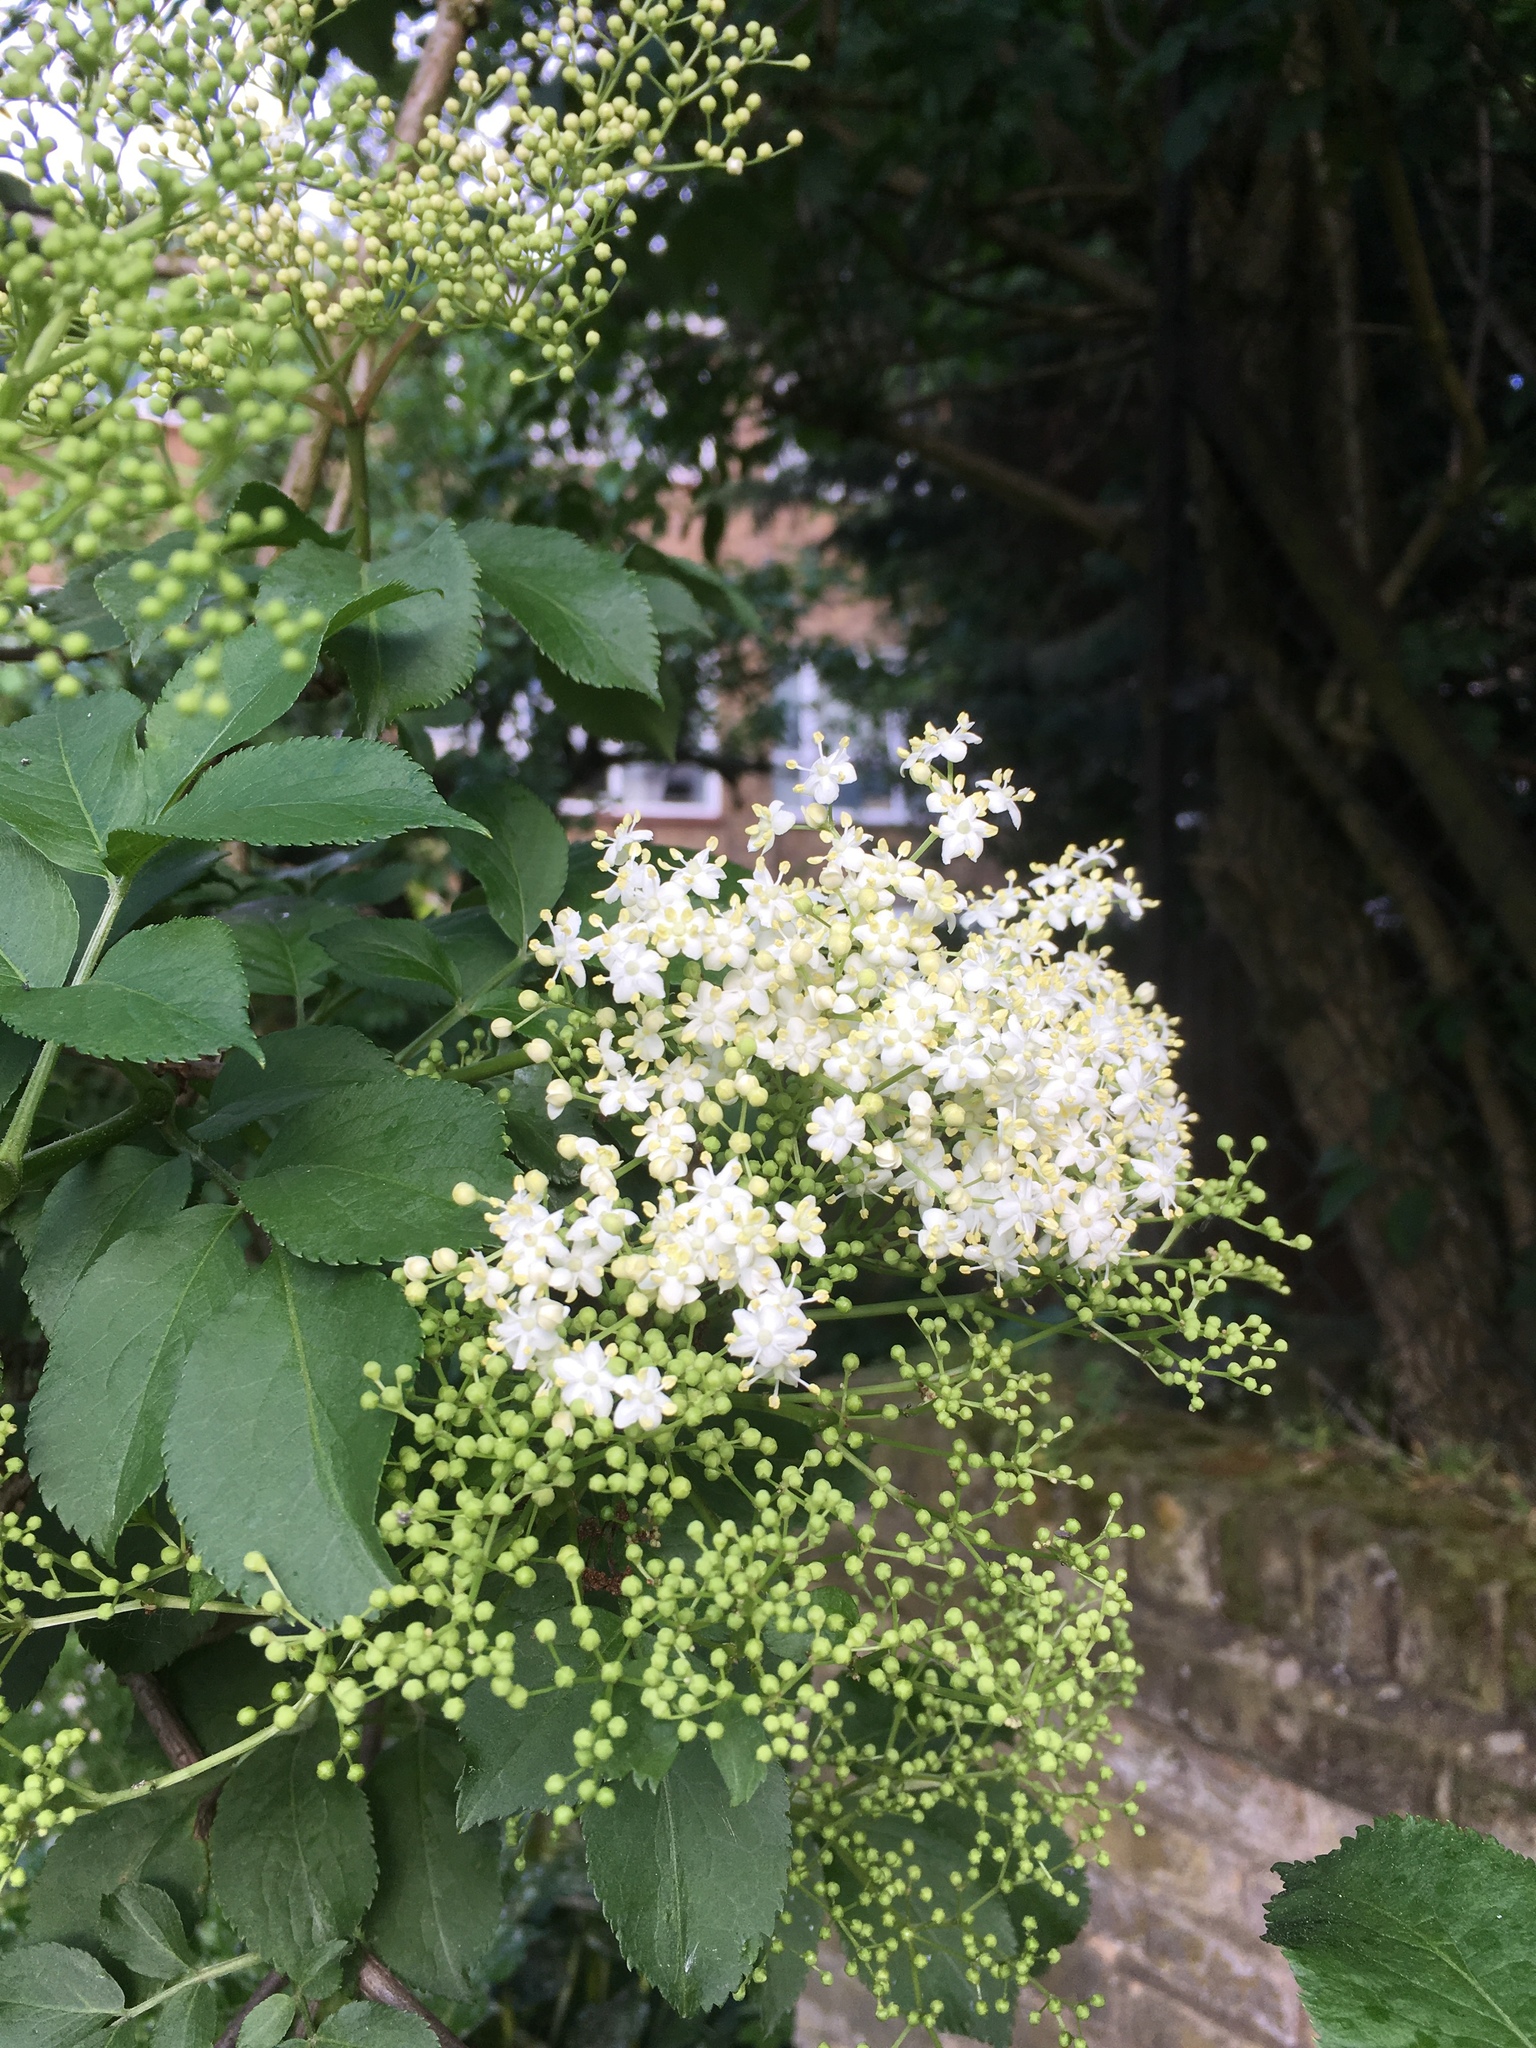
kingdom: Plantae
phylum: Tracheophyta
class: Magnoliopsida
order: Dipsacales
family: Viburnaceae
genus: Sambucus
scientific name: Sambucus nigra
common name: Elder
